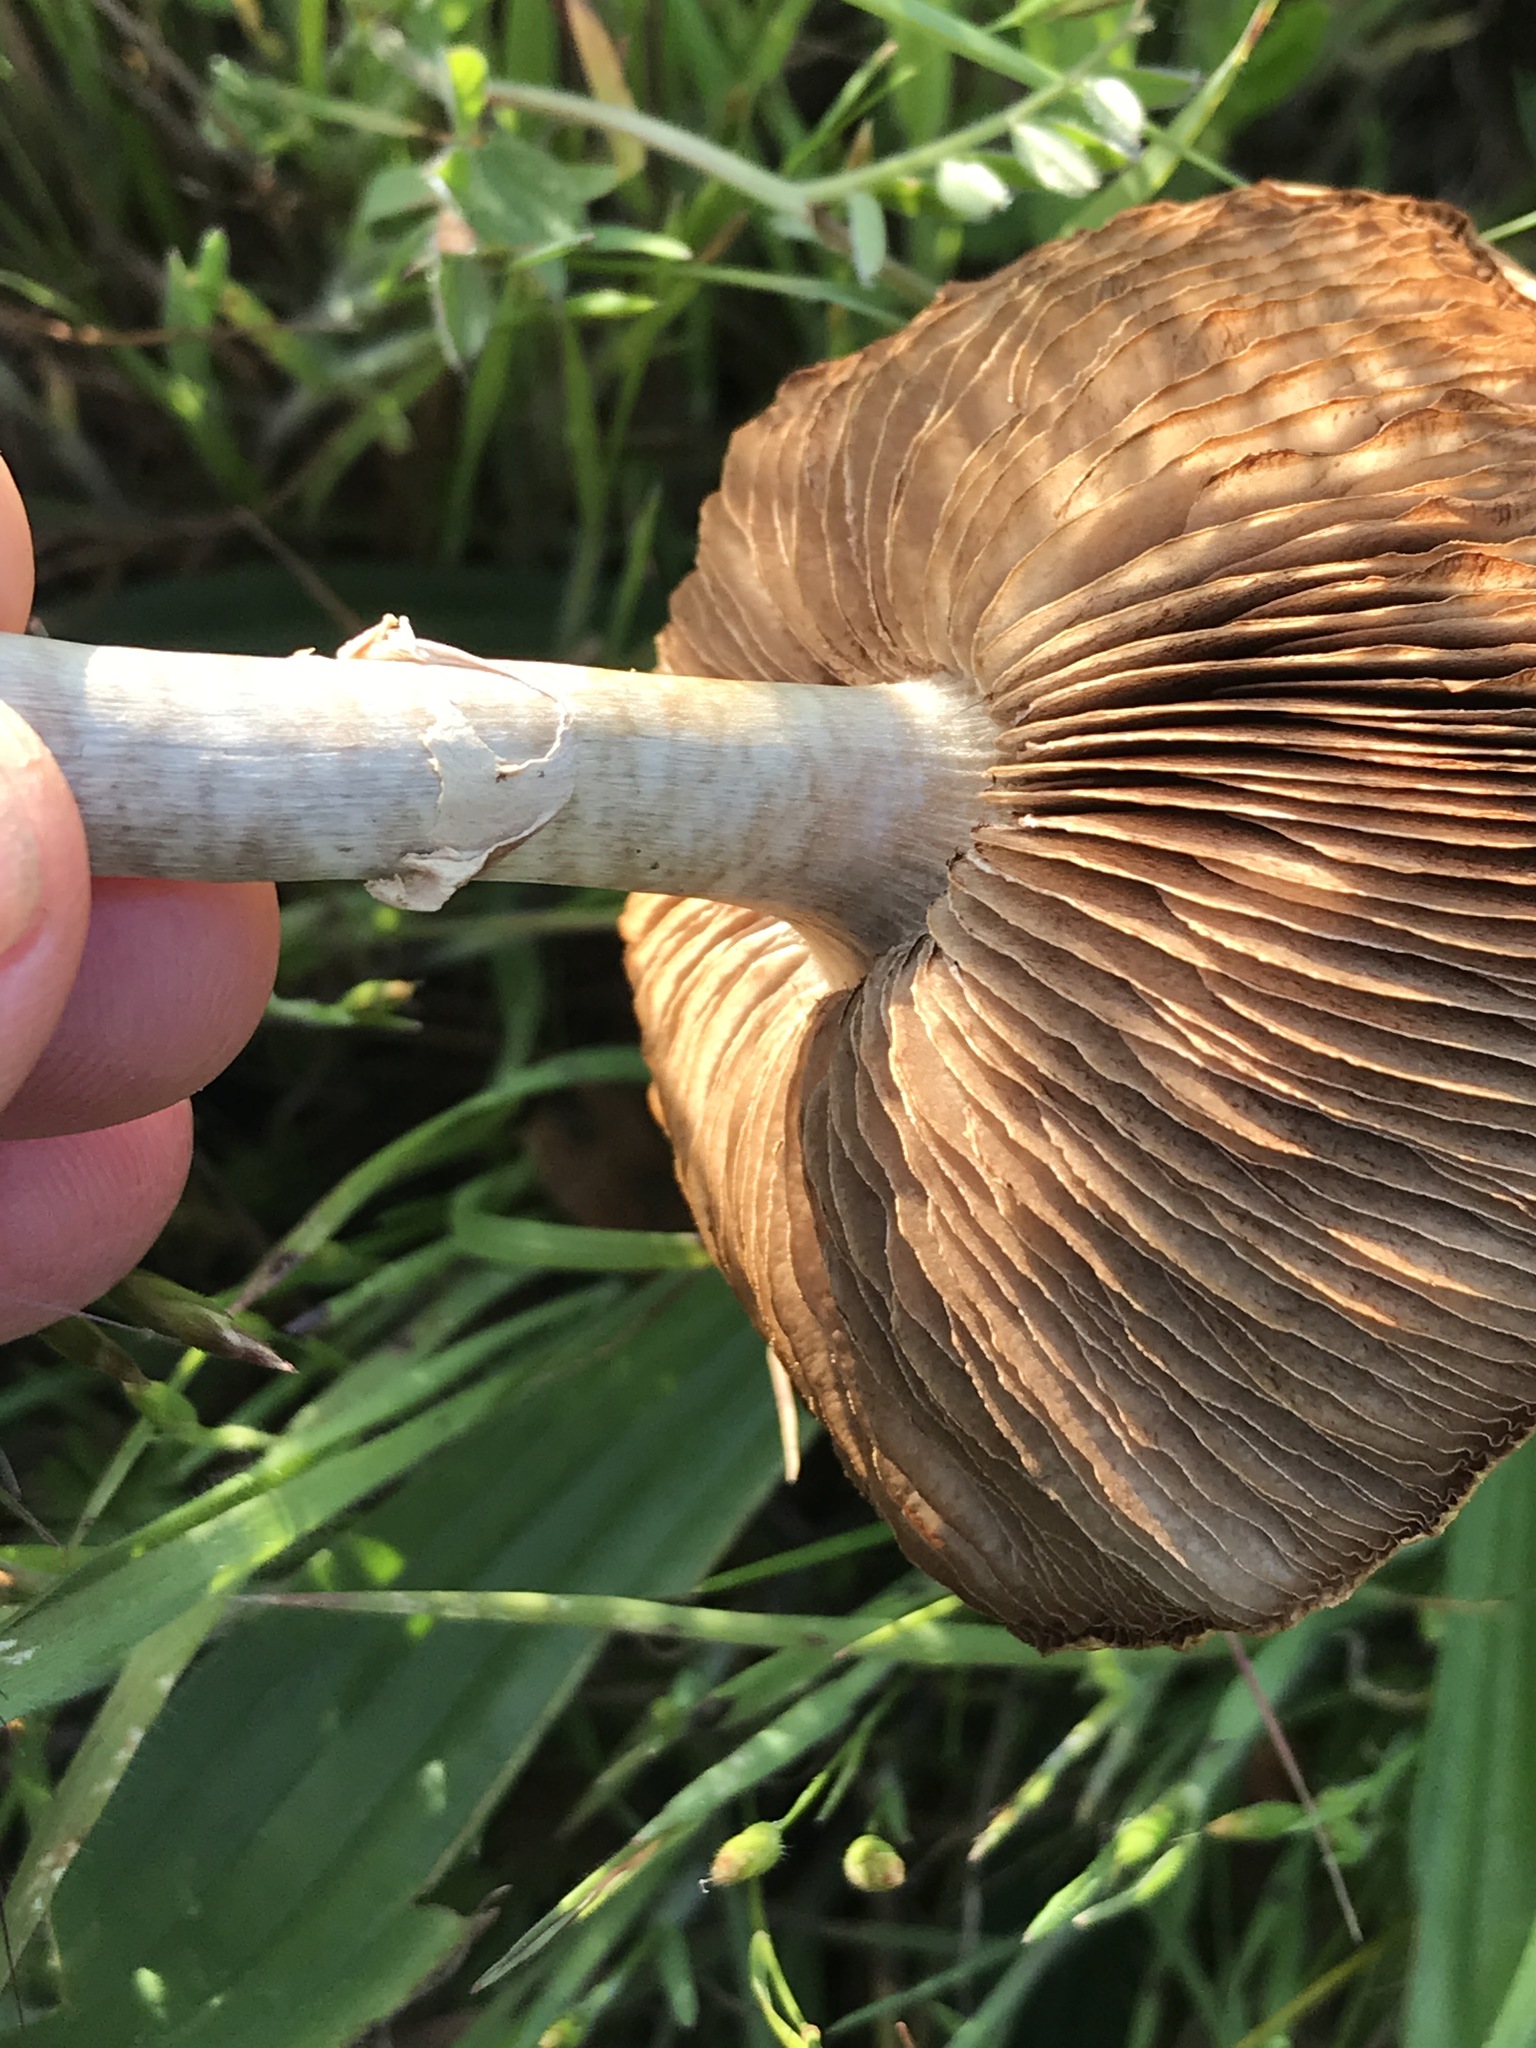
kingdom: Fungi
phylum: Basidiomycota
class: Agaricomycetes
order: Agaricales
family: Strophariaceae
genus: Agrocybe
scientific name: Agrocybe praecox
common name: Spring fieldcap
